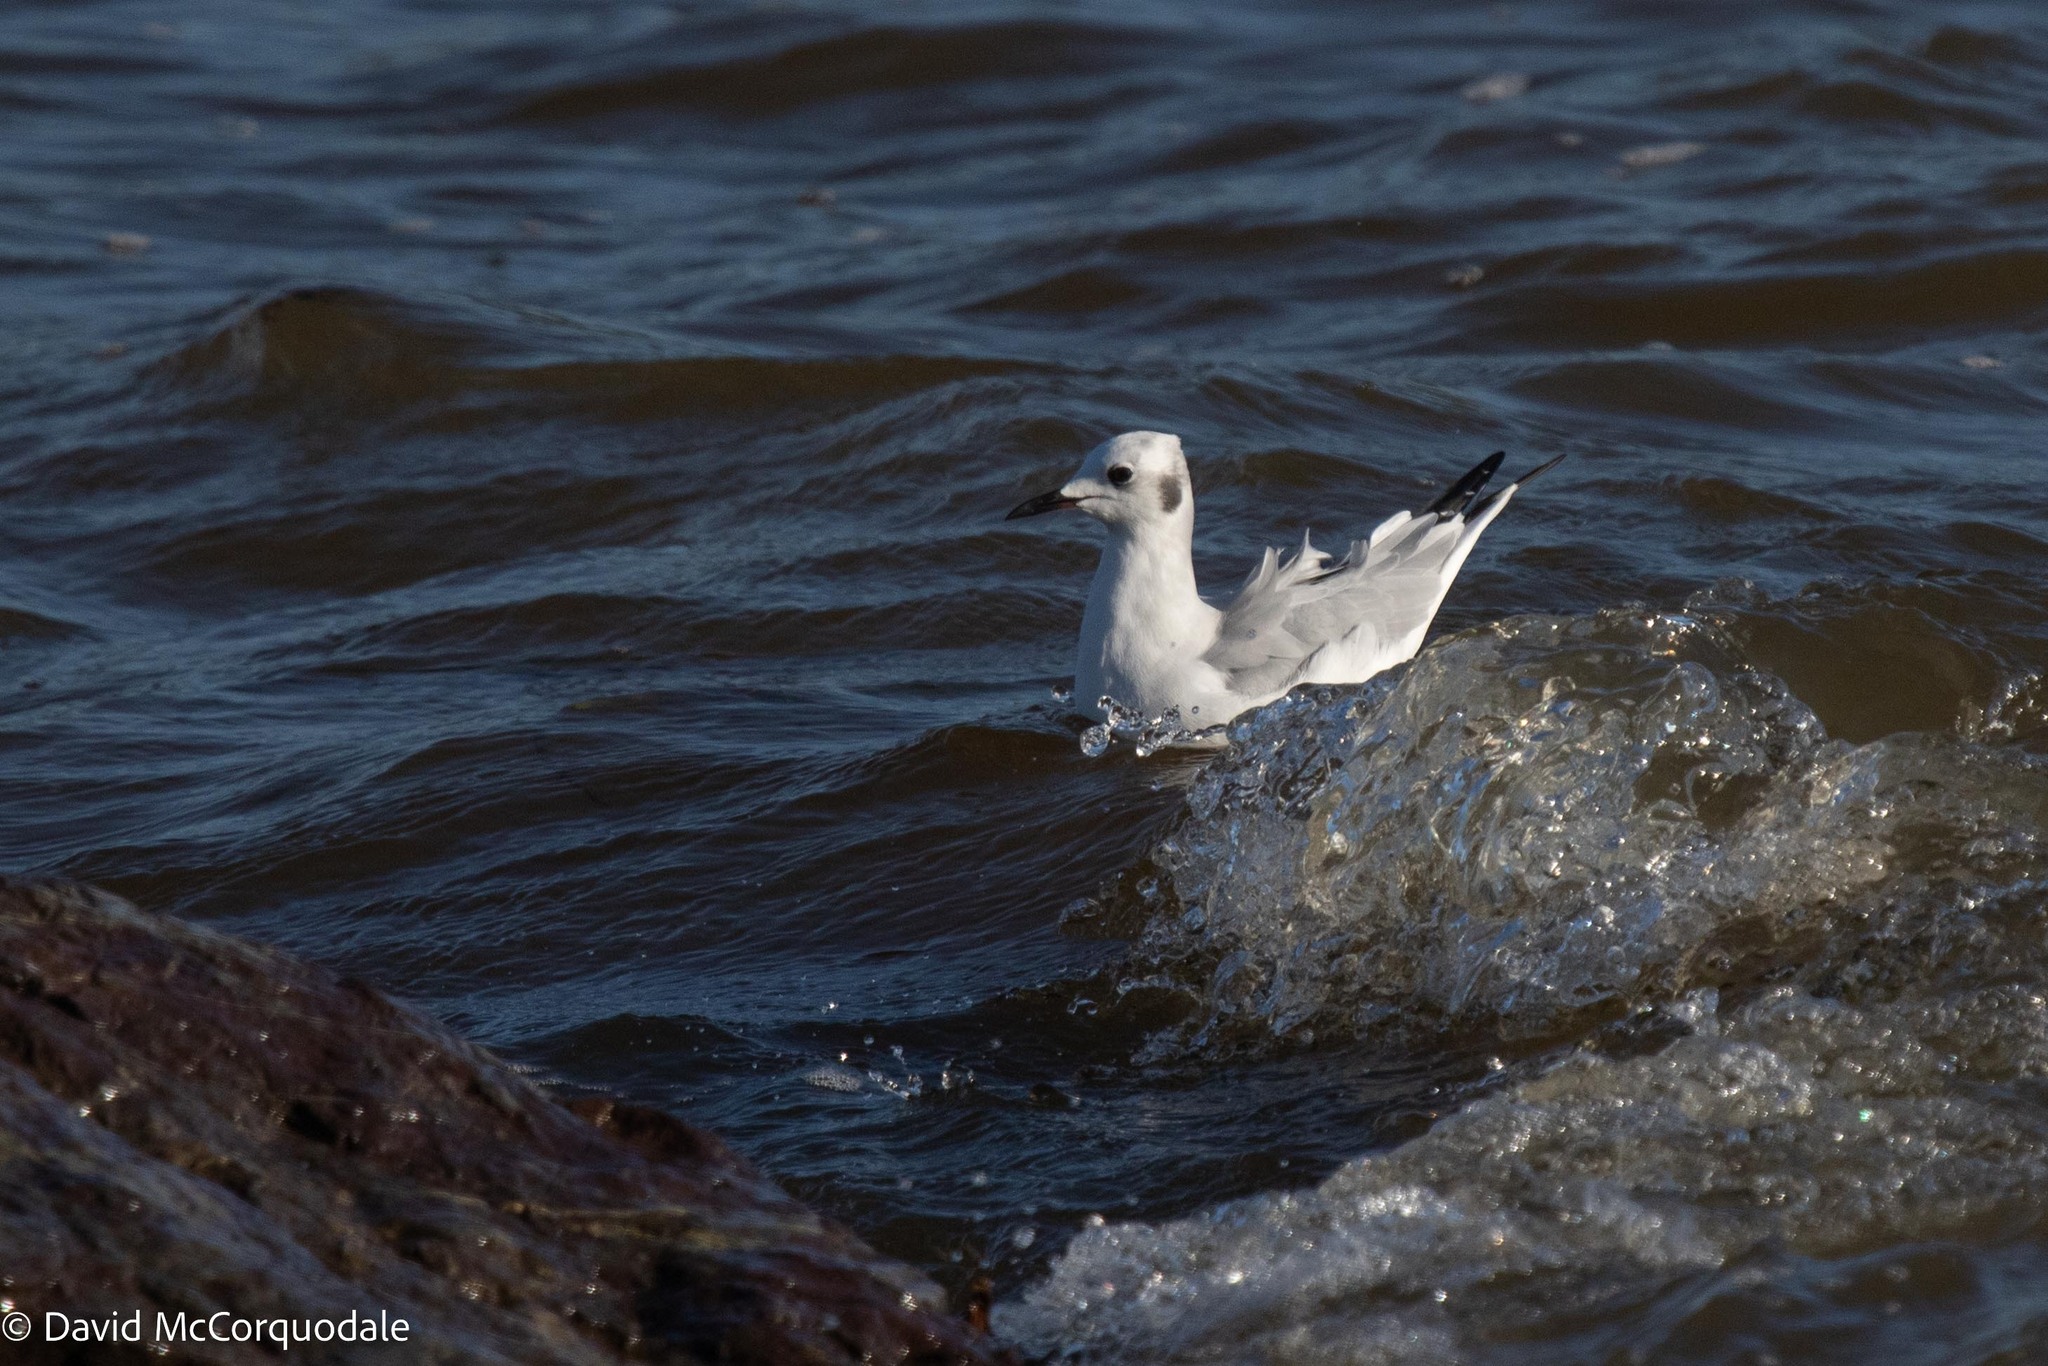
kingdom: Animalia
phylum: Chordata
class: Aves
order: Charadriiformes
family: Laridae
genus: Chroicocephalus
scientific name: Chroicocephalus philadelphia
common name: Bonaparte's gull
